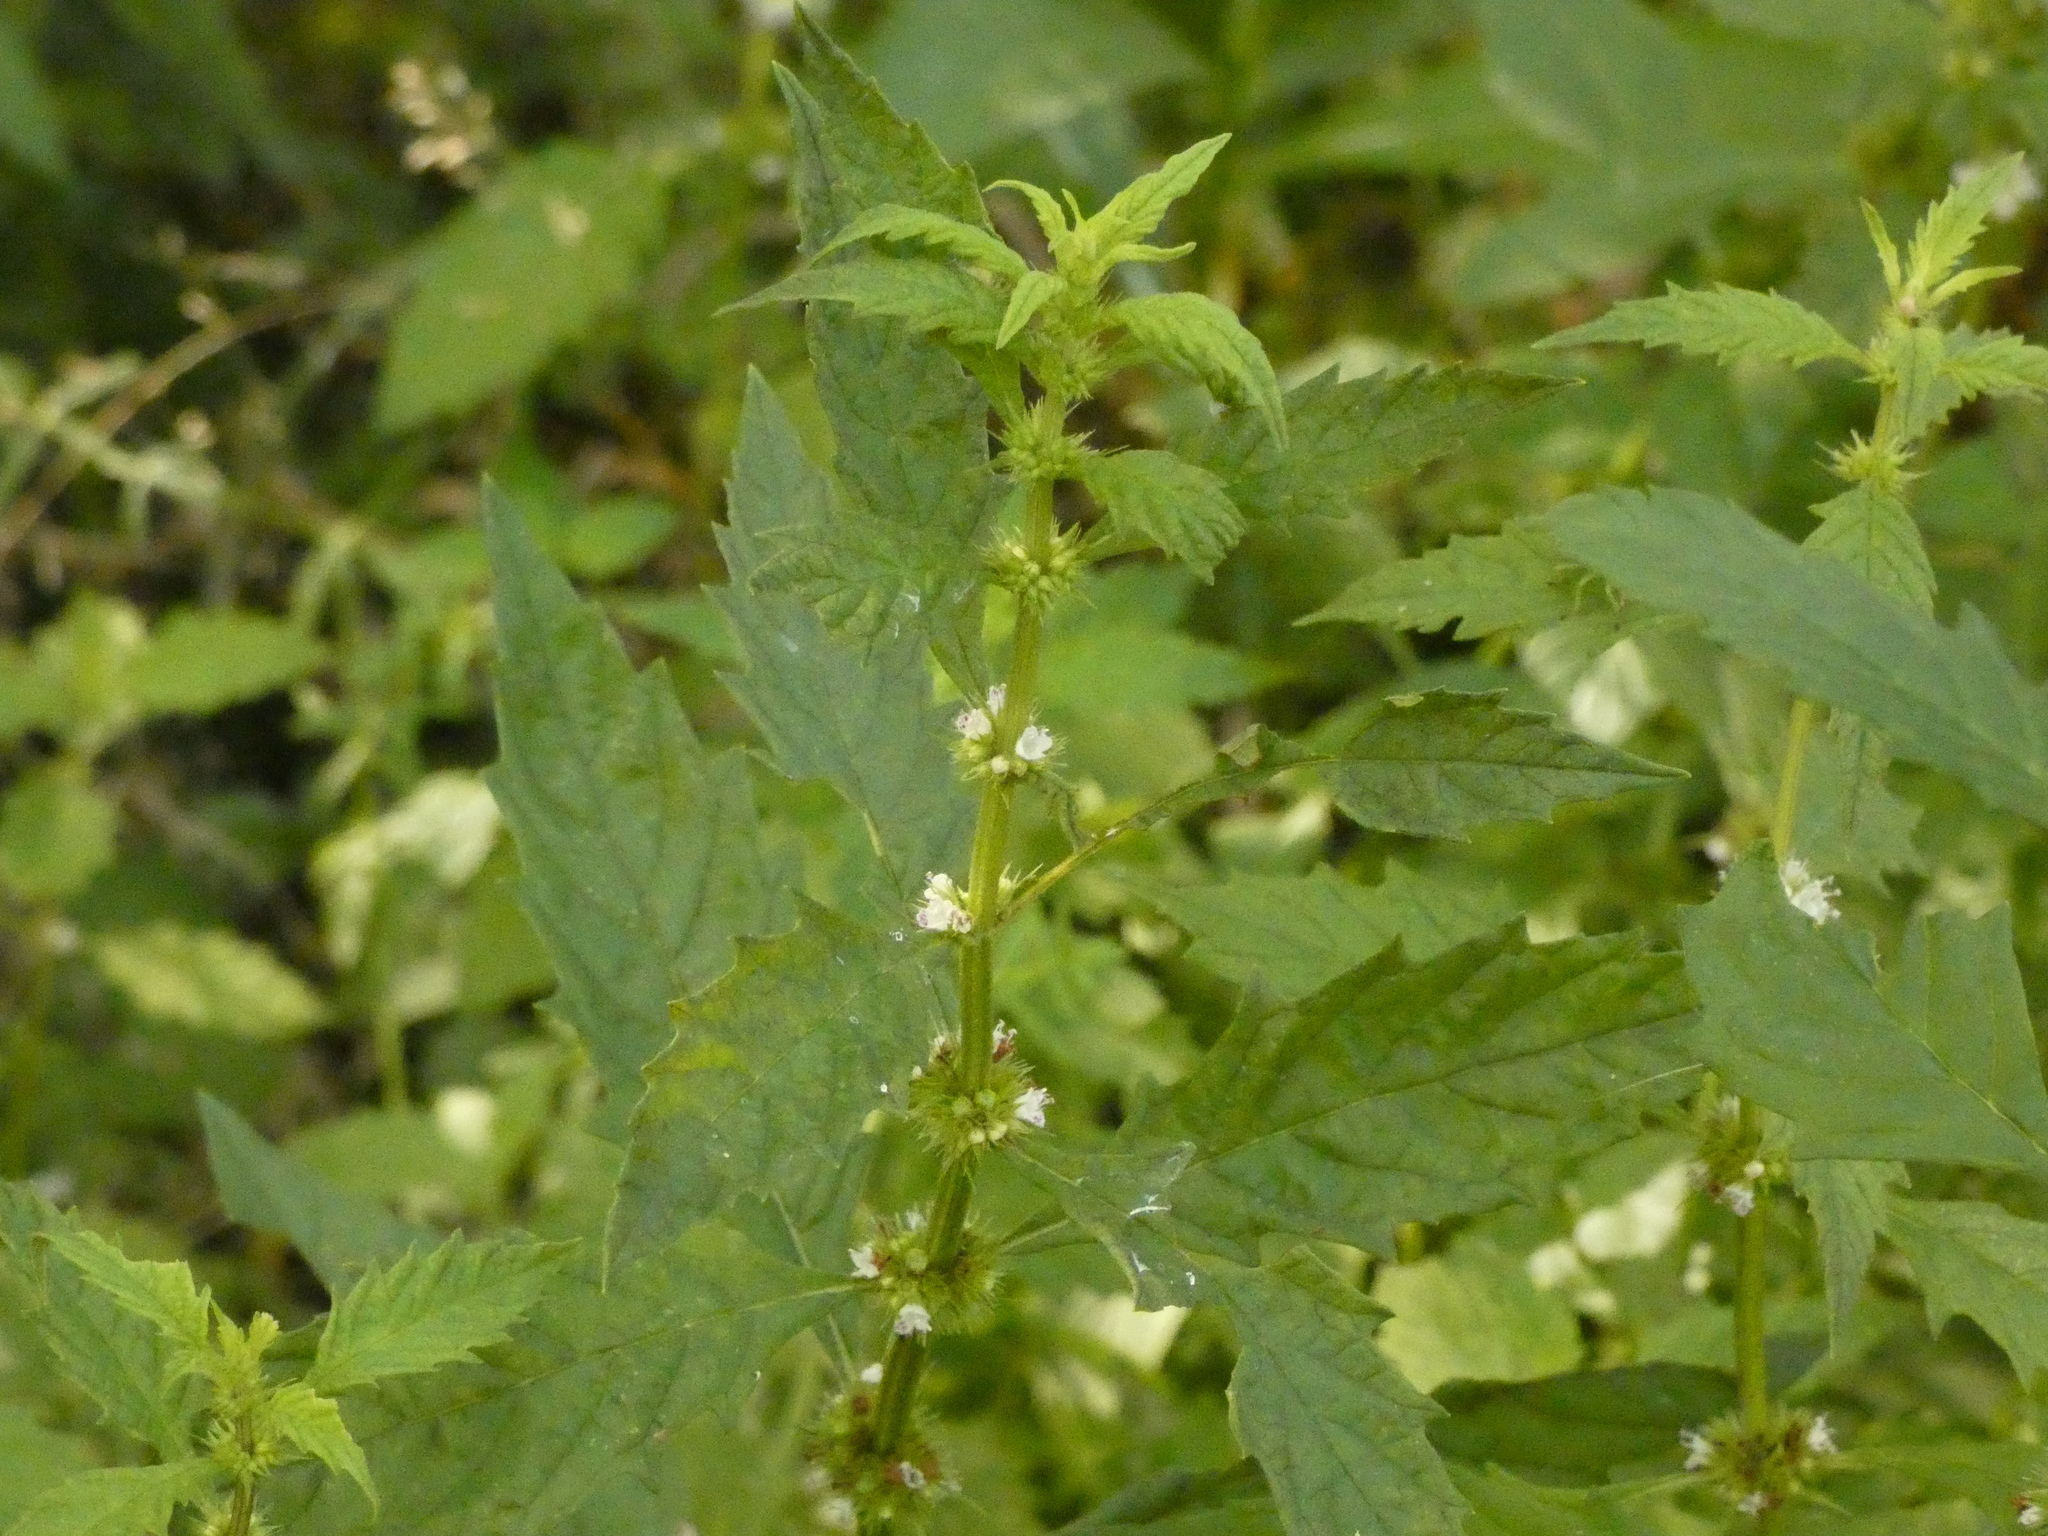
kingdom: Plantae
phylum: Tracheophyta
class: Magnoliopsida
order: Lamiales
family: Lamiaceae
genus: Lycopus
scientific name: Lycopus europaeus
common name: European bugleweed
